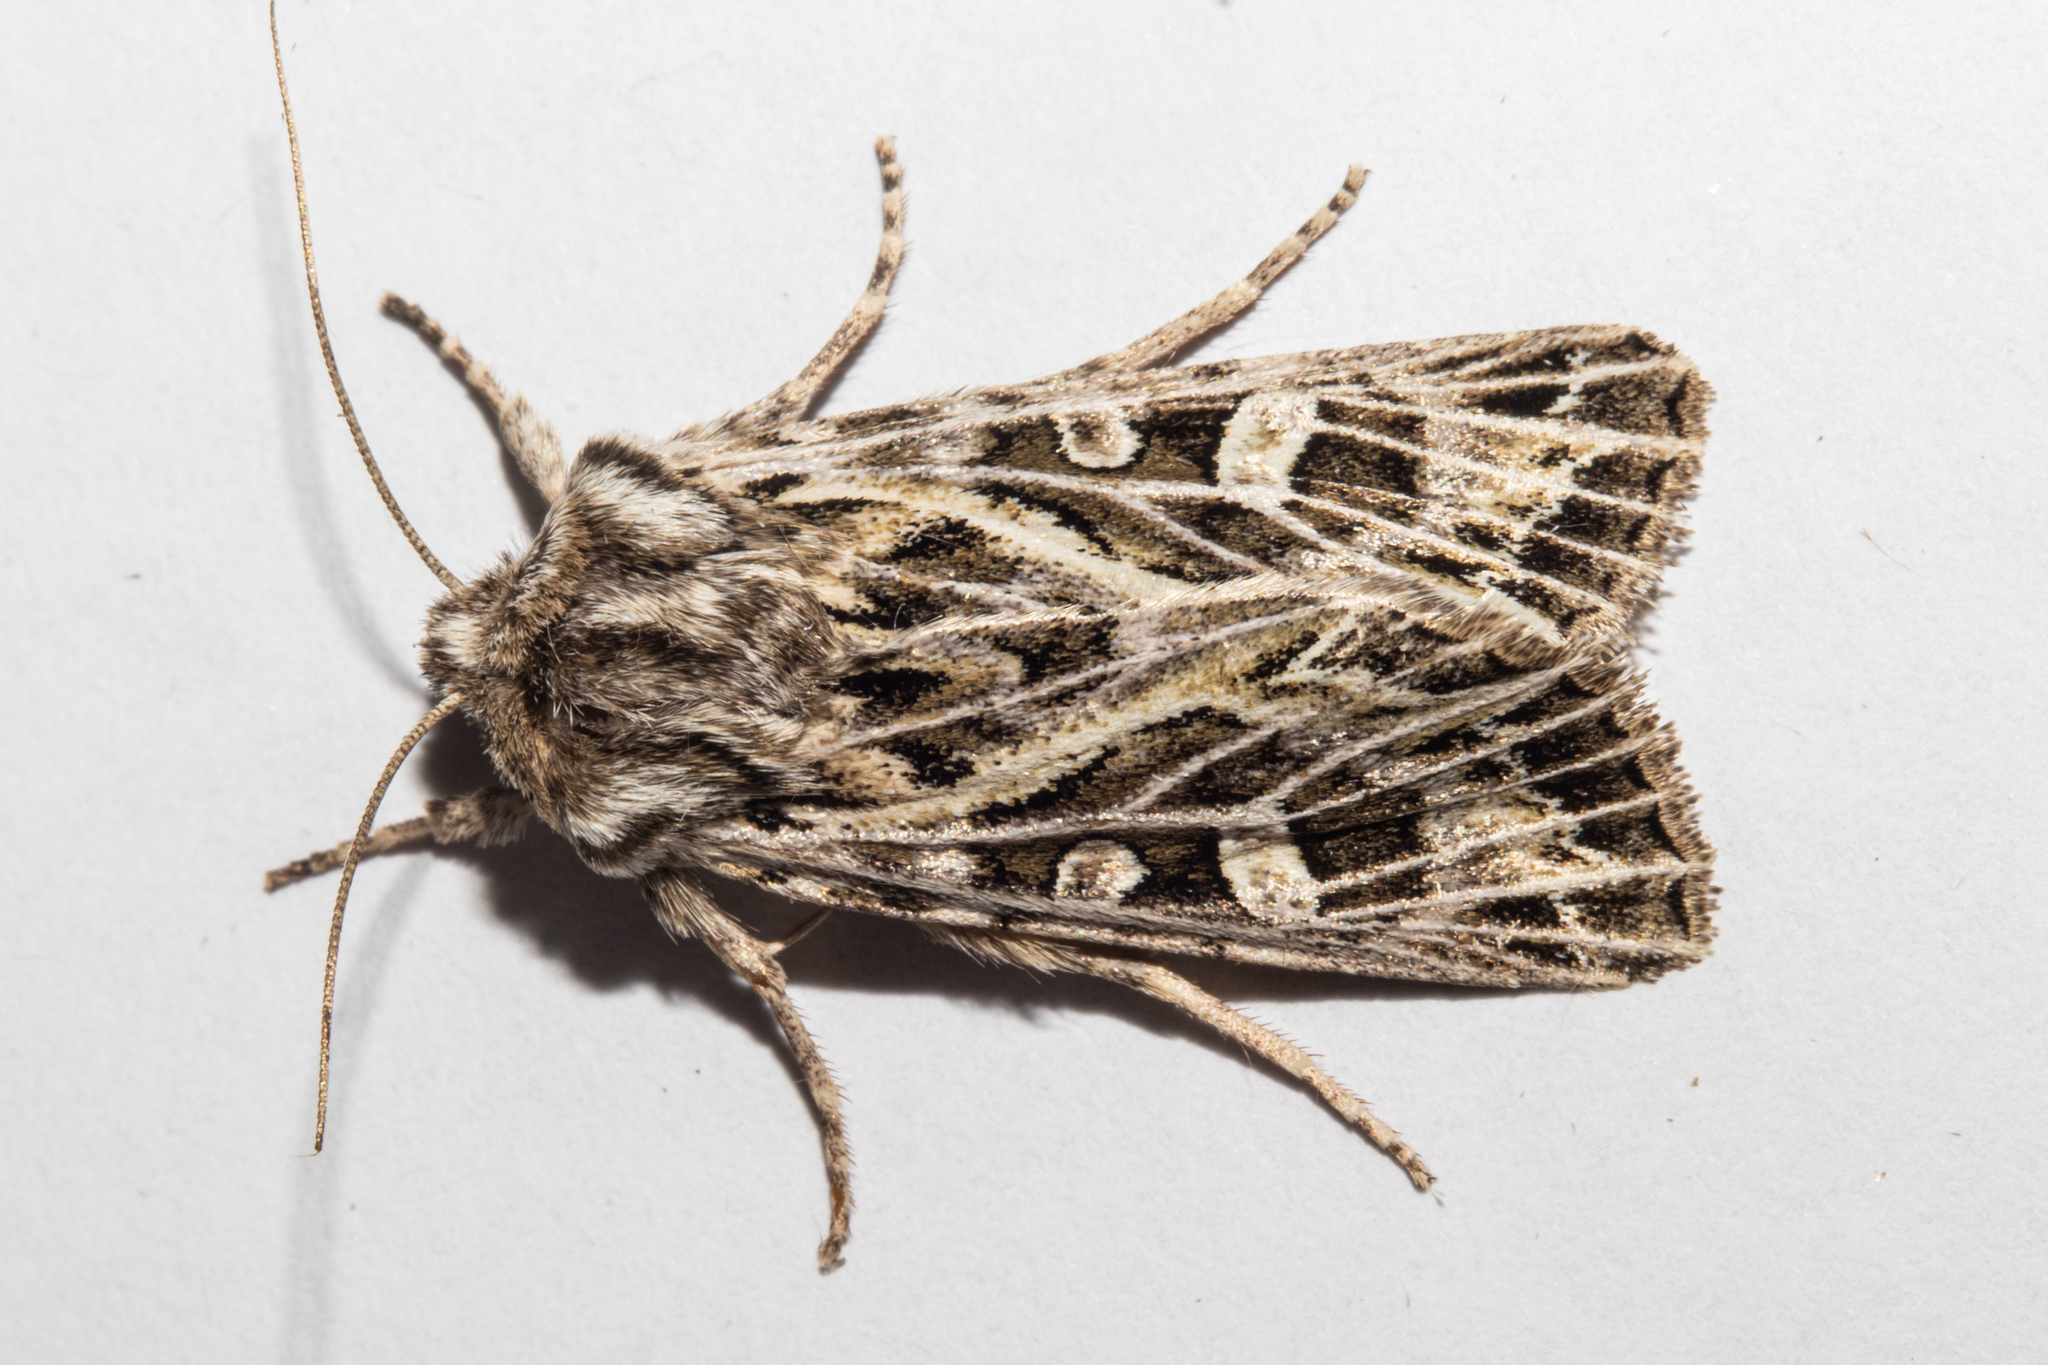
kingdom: Animalia
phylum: Arthropoda
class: Insecta
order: Lepidoptera
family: Noctuidae
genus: Ichneutica
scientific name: Ichneutica
